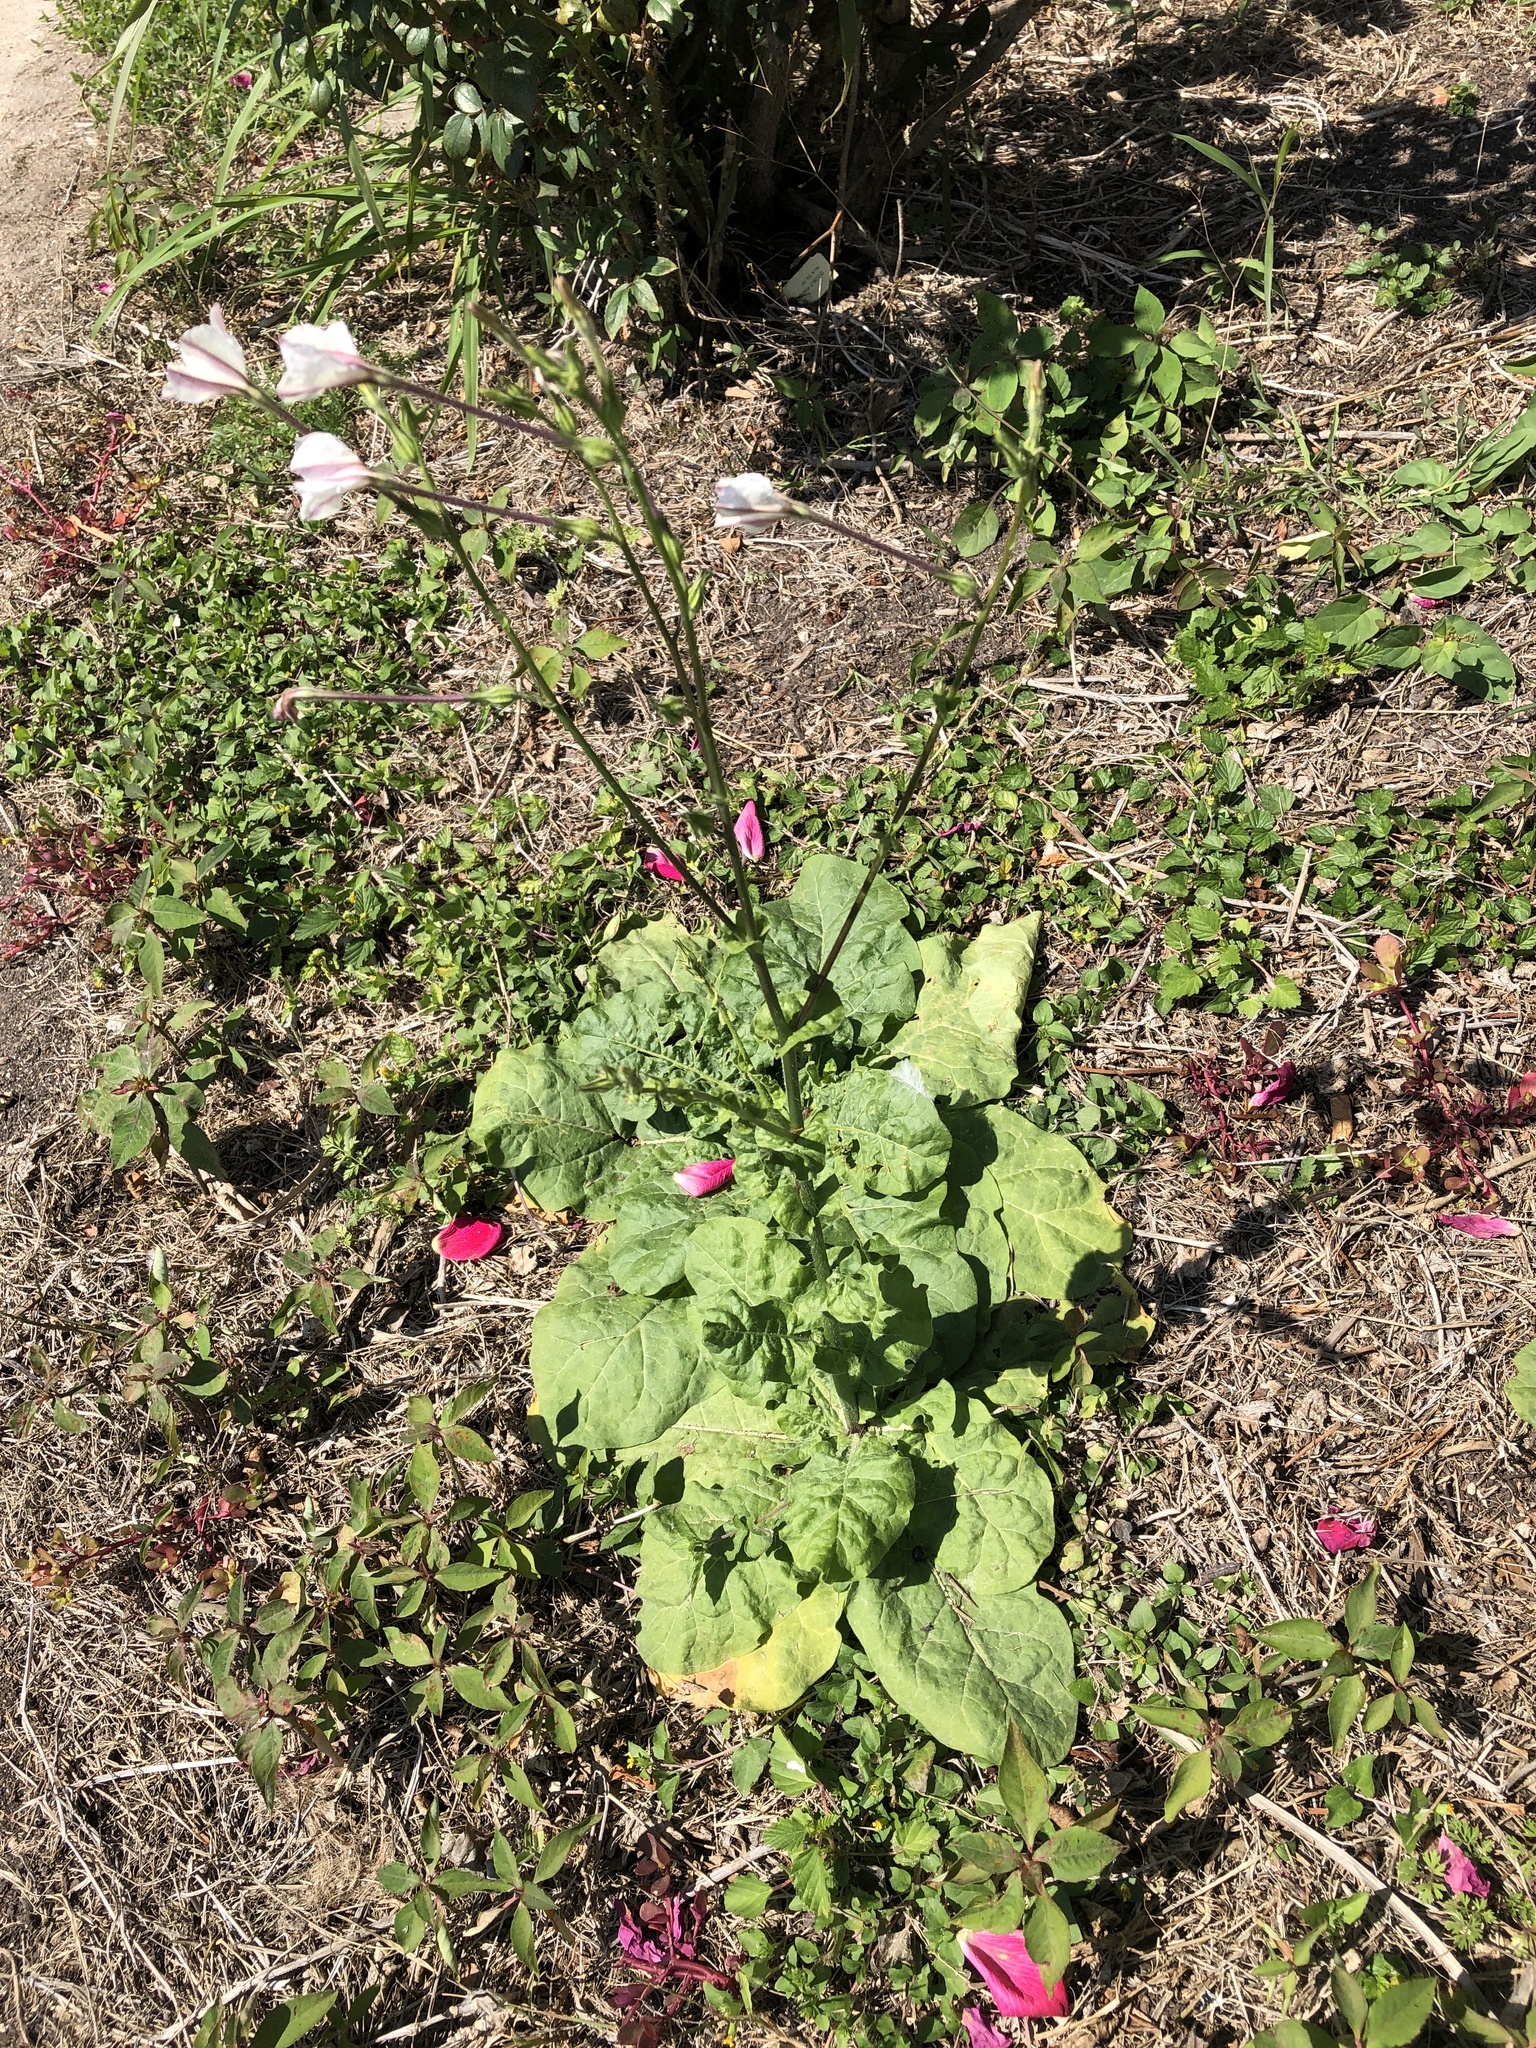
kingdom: Plantae
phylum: Tracheophyta
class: Magnoliopsida
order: Solanales
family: Solanaceae
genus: Nicotiana
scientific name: Nicotiana repanda
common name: Fiddle-leaf tobacco
